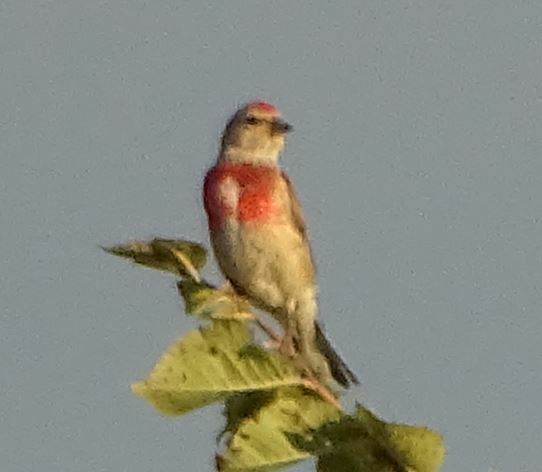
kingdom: Animalia
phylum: Chordata
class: Aves
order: Passeriformes
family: Fringillidae
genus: Linaria
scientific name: Linaria cannabina
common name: Common linnet
